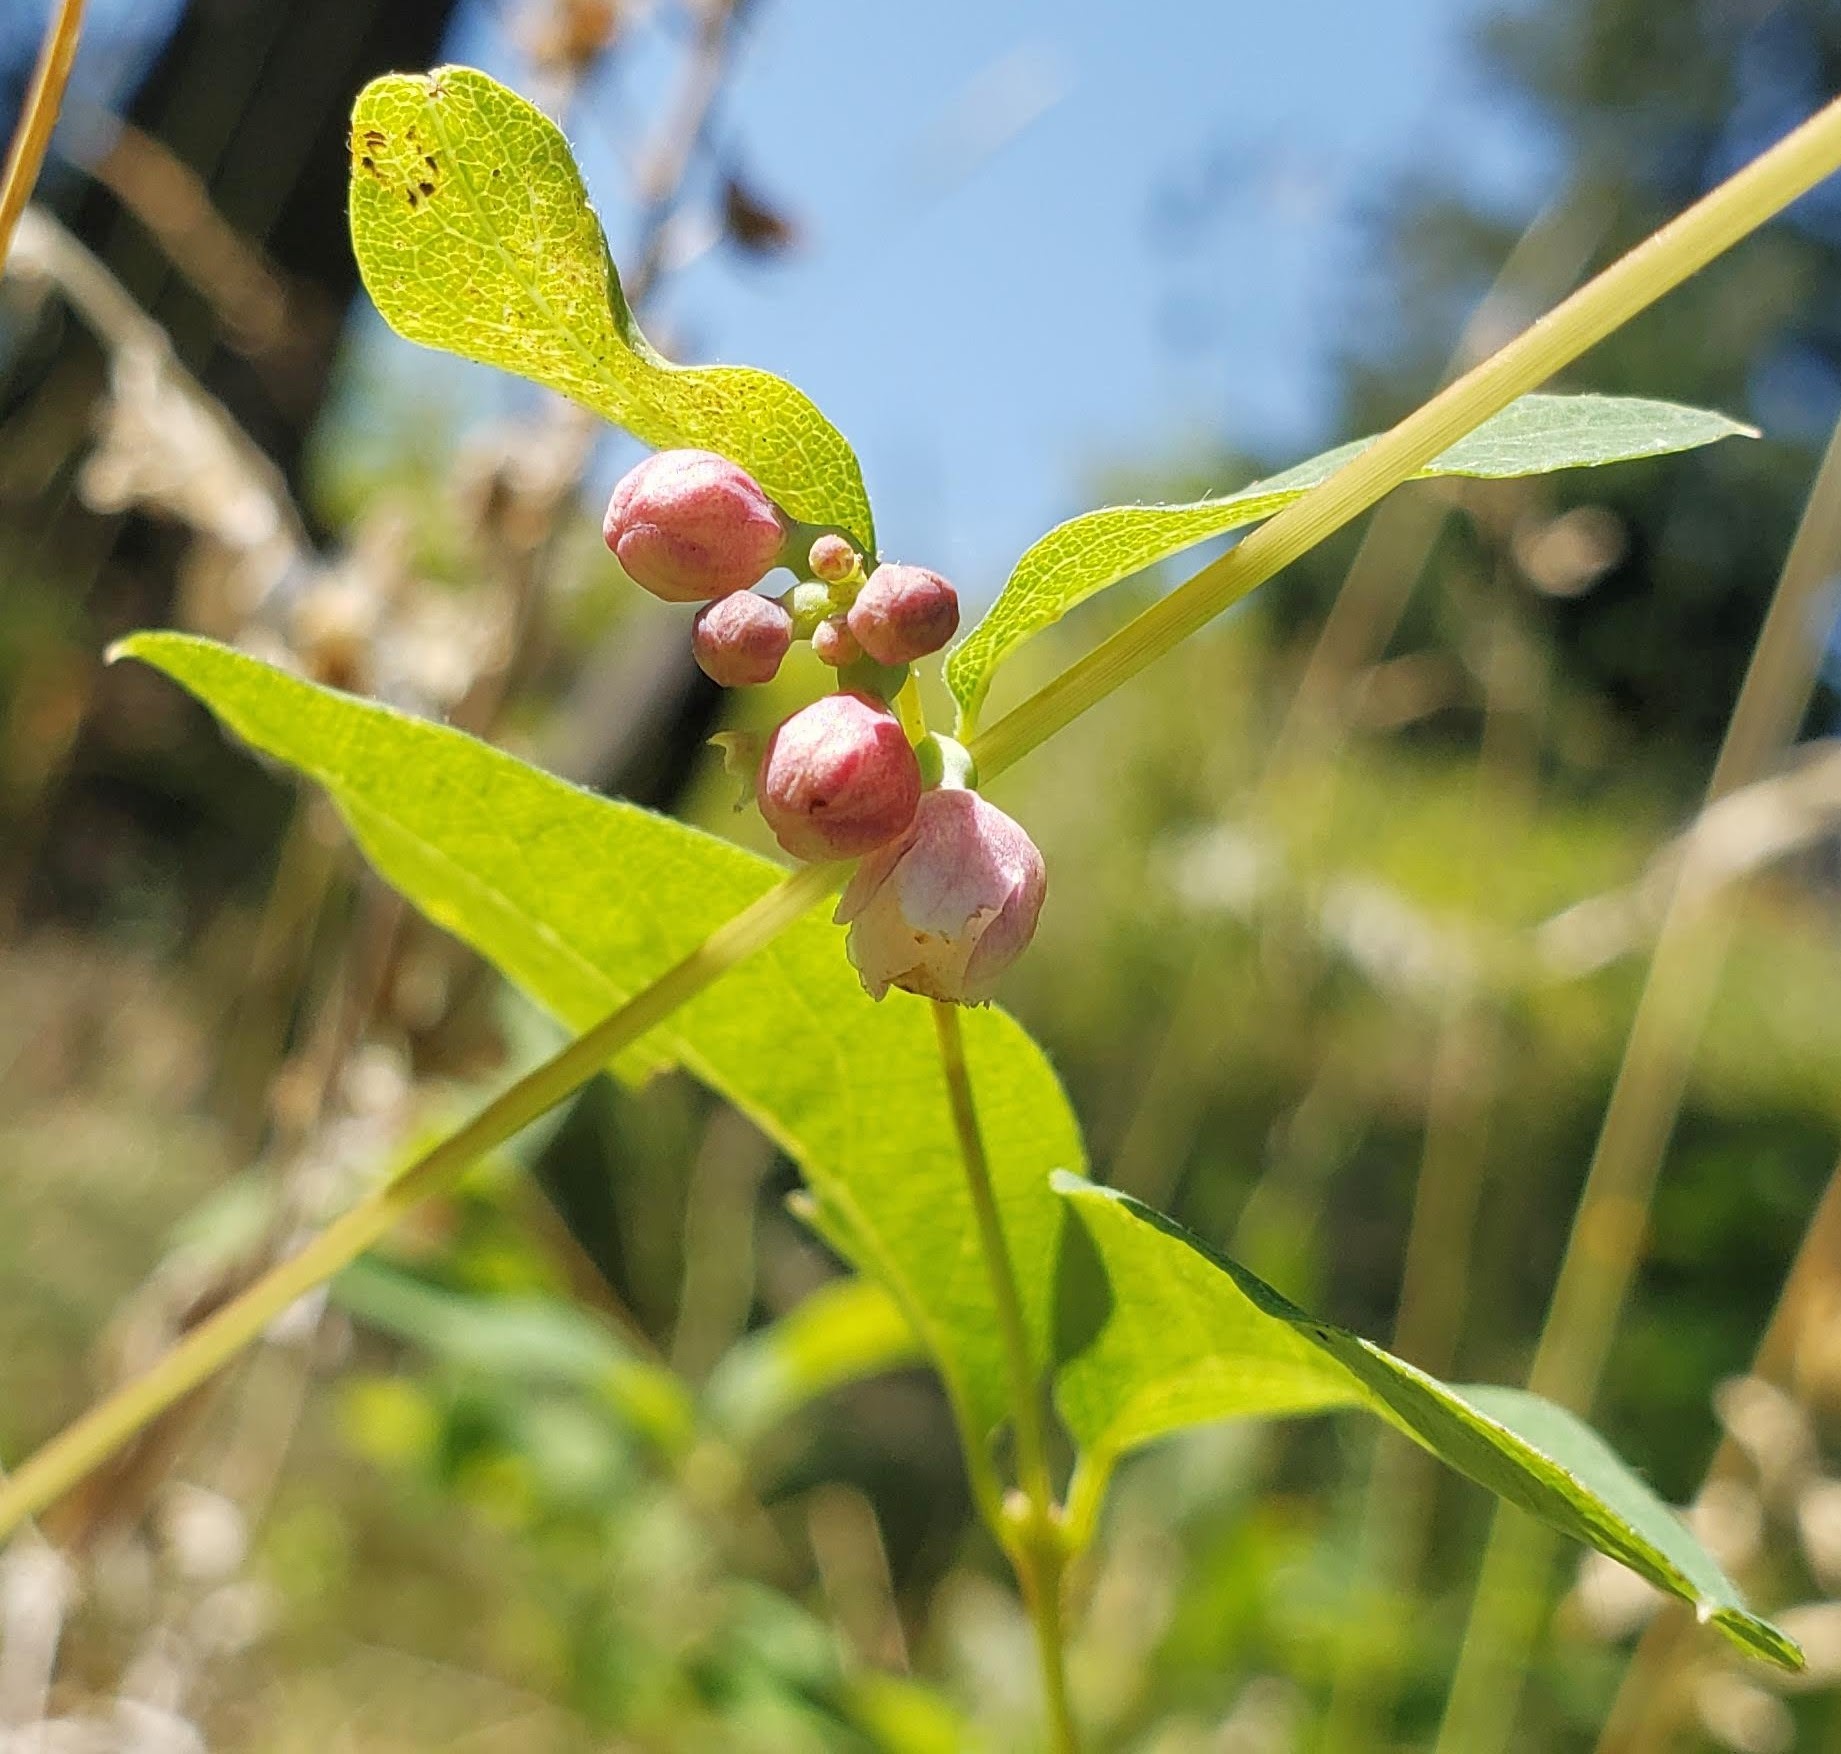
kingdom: Plantae
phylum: Tracheophyta
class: Magnoliopsida
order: Dipsacales
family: Caprifoliaceae
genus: Symphoricarpos
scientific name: Symphoricarpos albus
